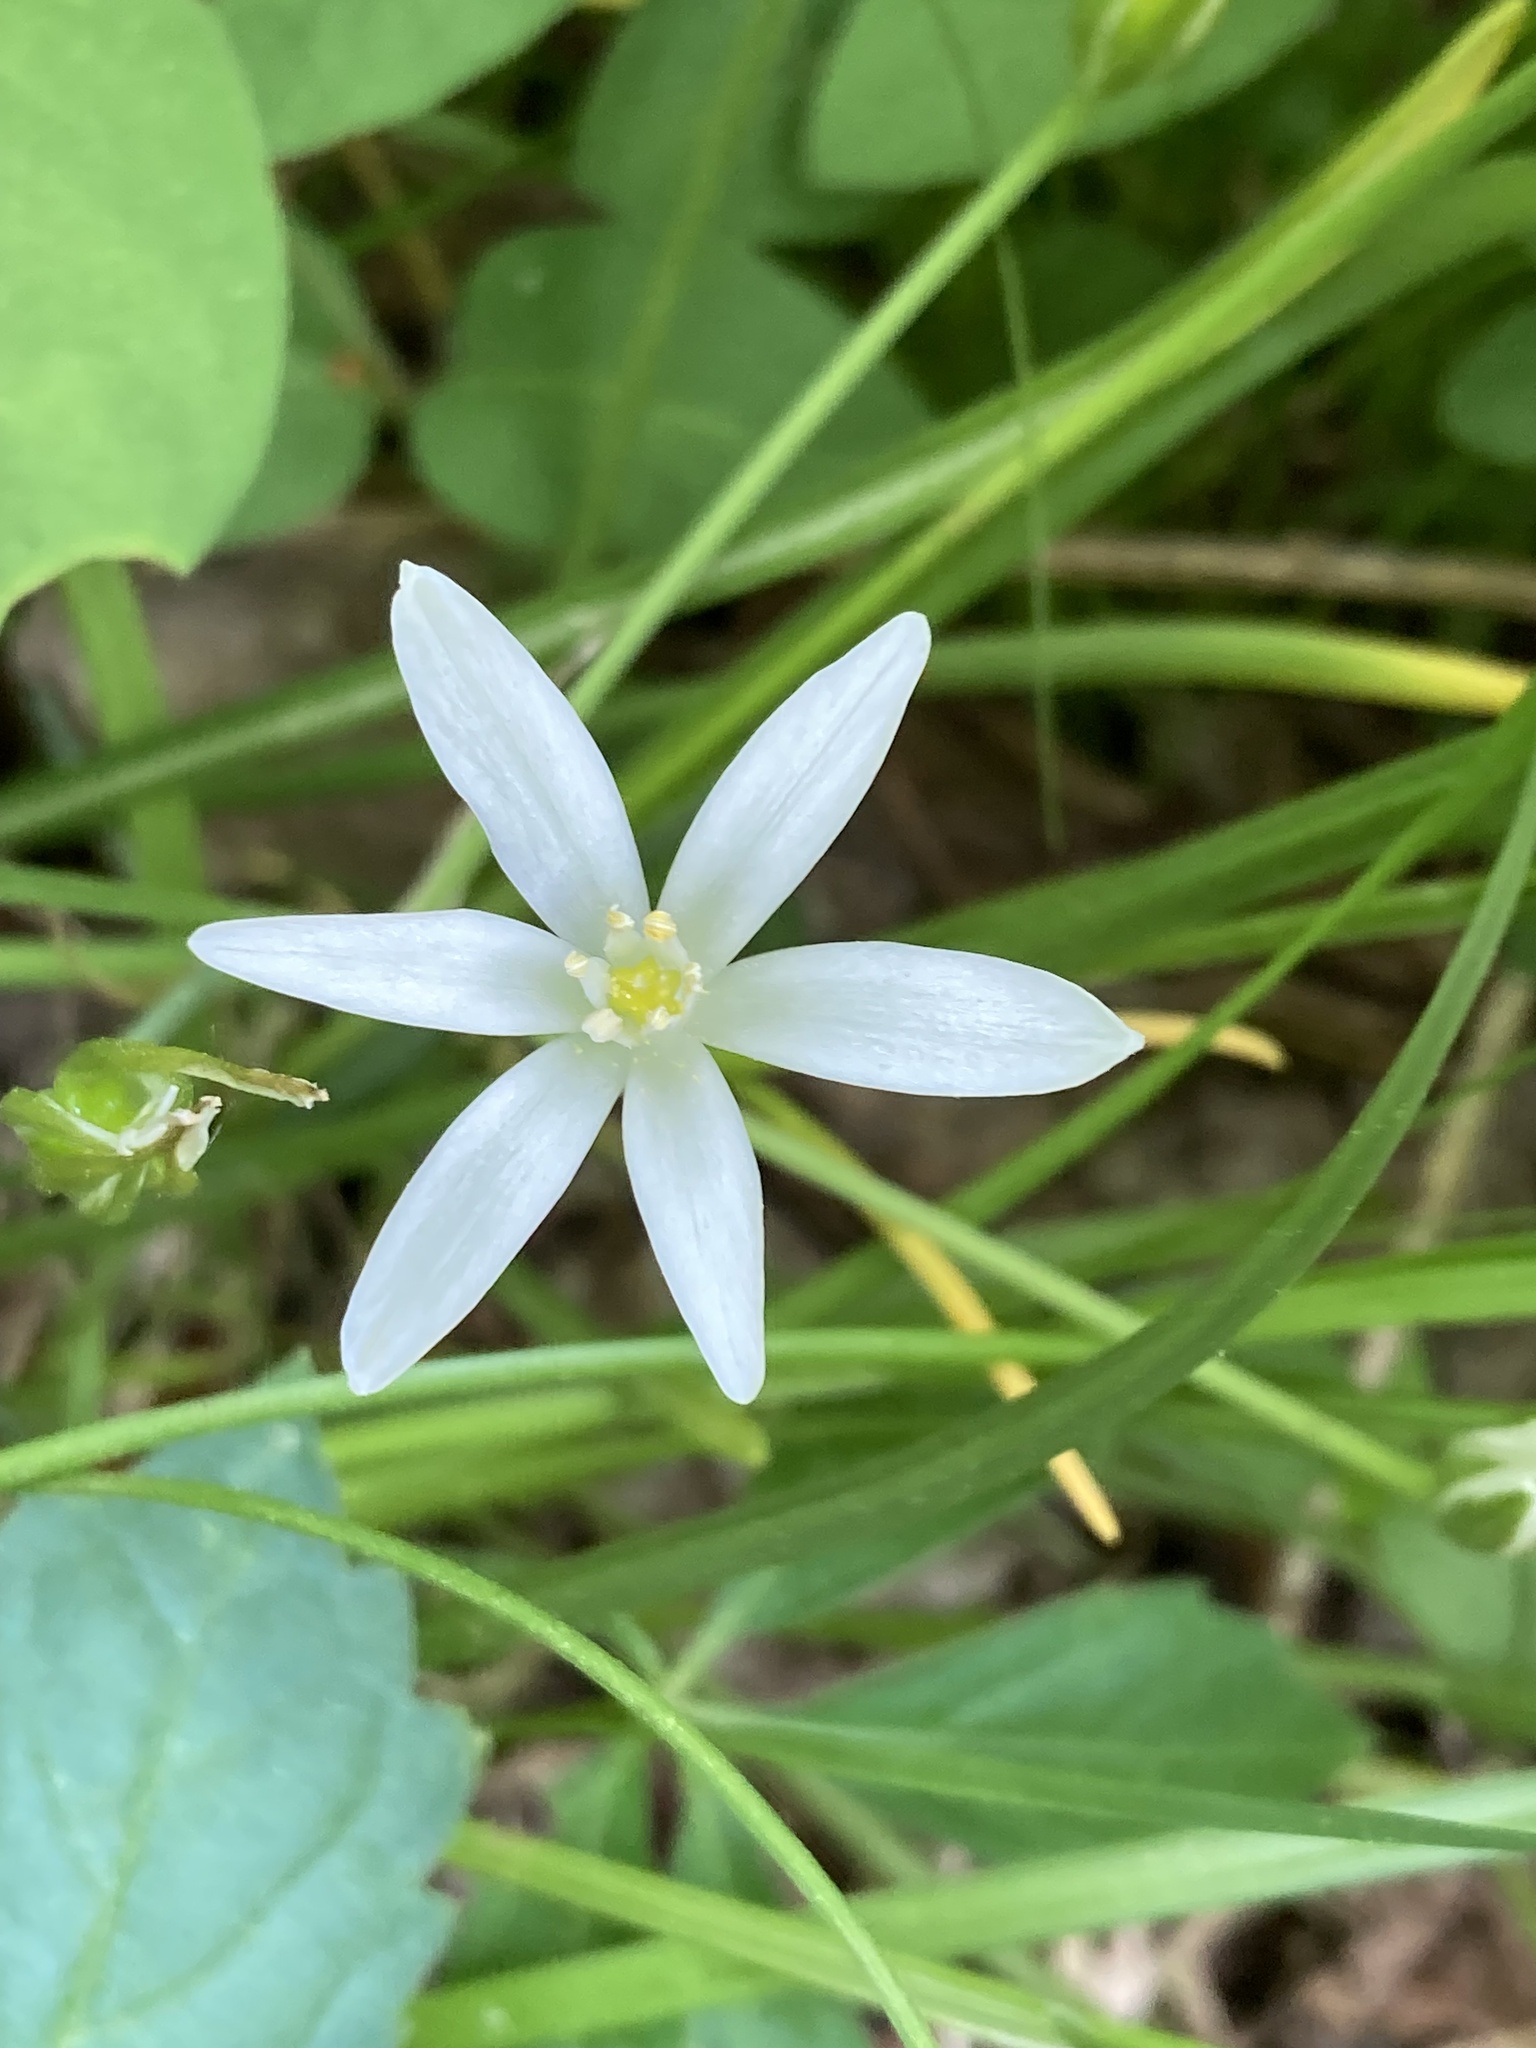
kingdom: Plantae
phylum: Tracheophyta
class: Liliopsida
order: Asparagales
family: Asparagaceae
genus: Ornithogalum
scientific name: Ornithogalum umbellatum
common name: Garden star-of-bethlehem
